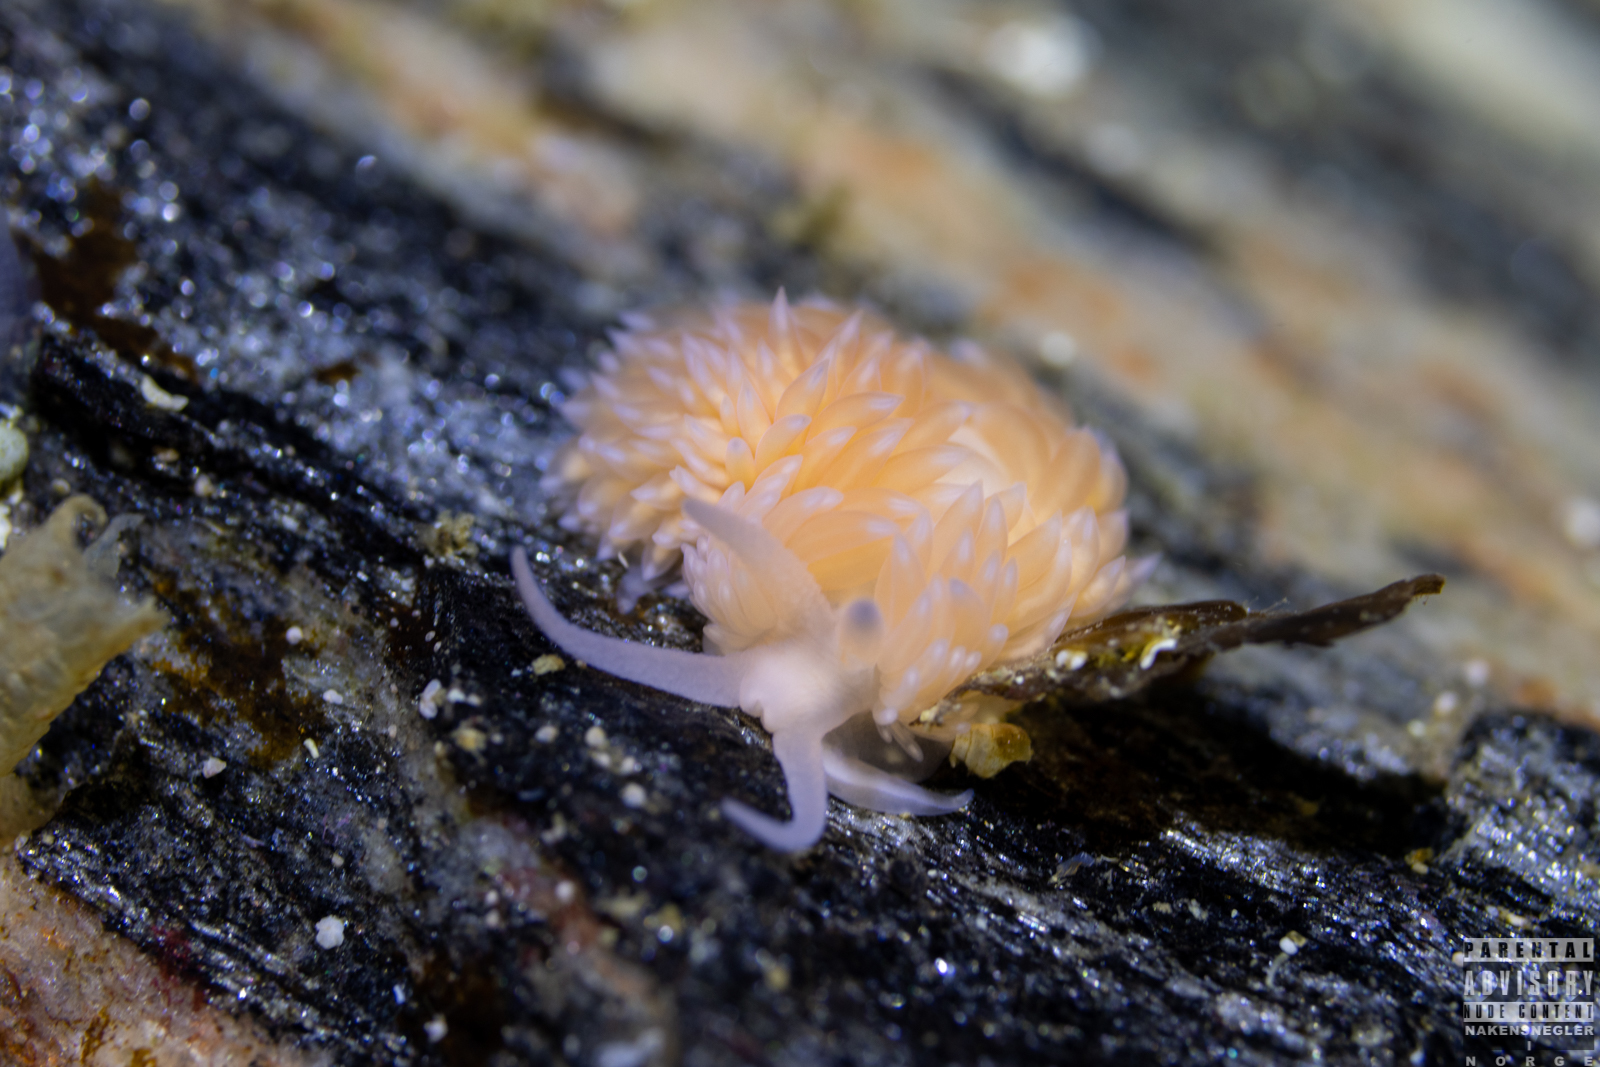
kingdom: Animalia
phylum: Mollusca
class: Gastropoda
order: Nudibranchia
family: Aeolidiidae
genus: Berghia
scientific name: Berghia norvegica
